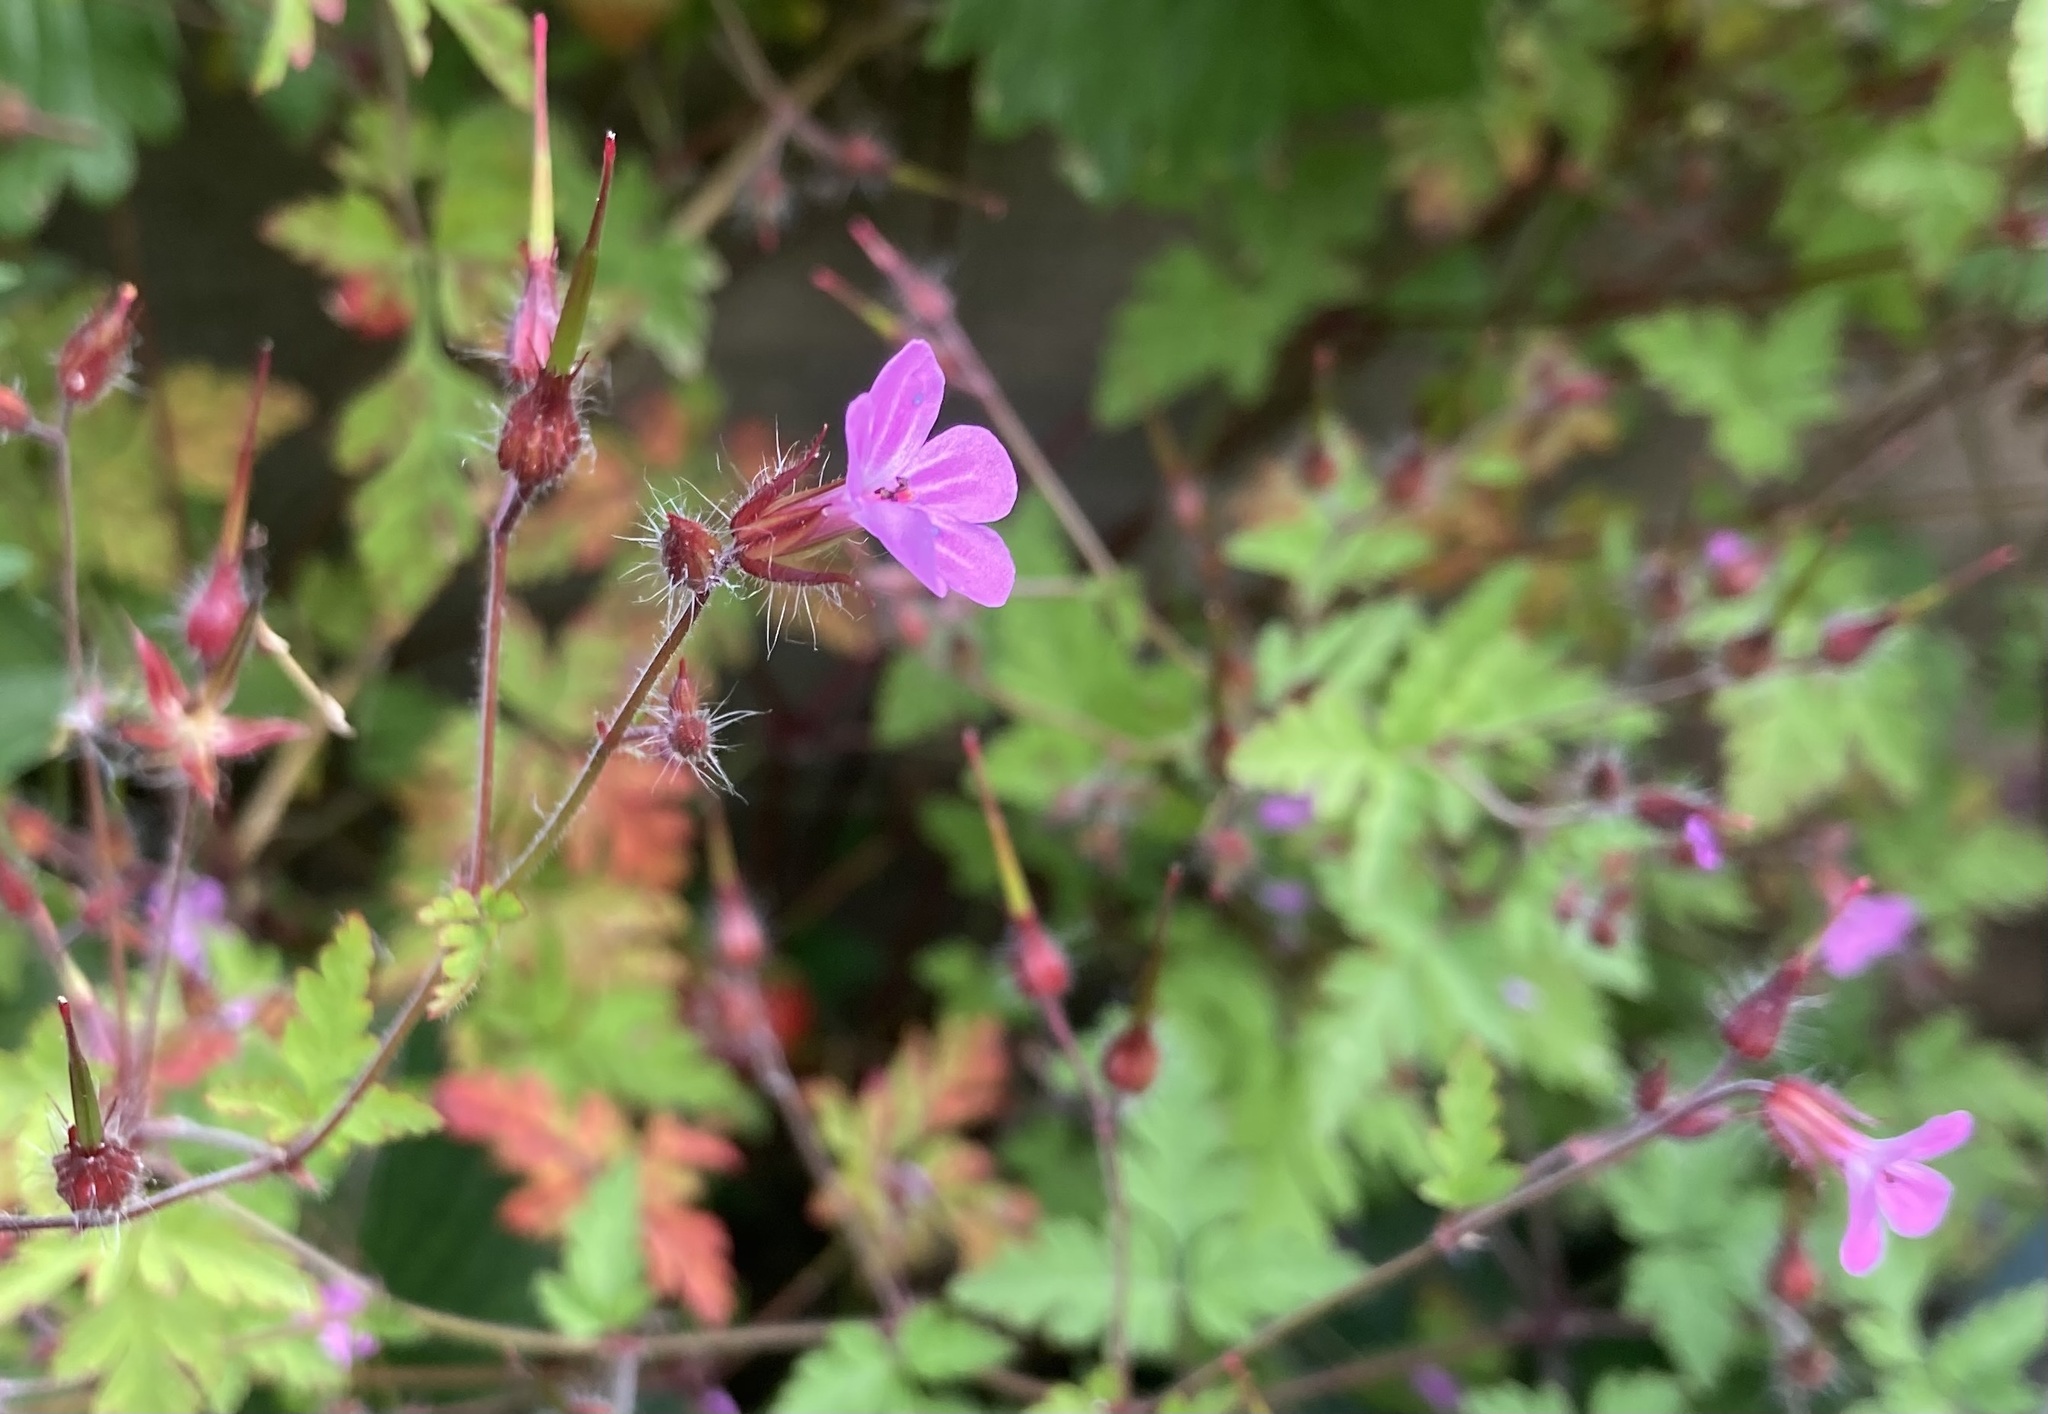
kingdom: Plantae
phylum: Tracheophyta
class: Magnoliopsida
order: Geraniales
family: Geraniaceae
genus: Geranium
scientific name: Geranium robertianum
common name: Herb-robert
